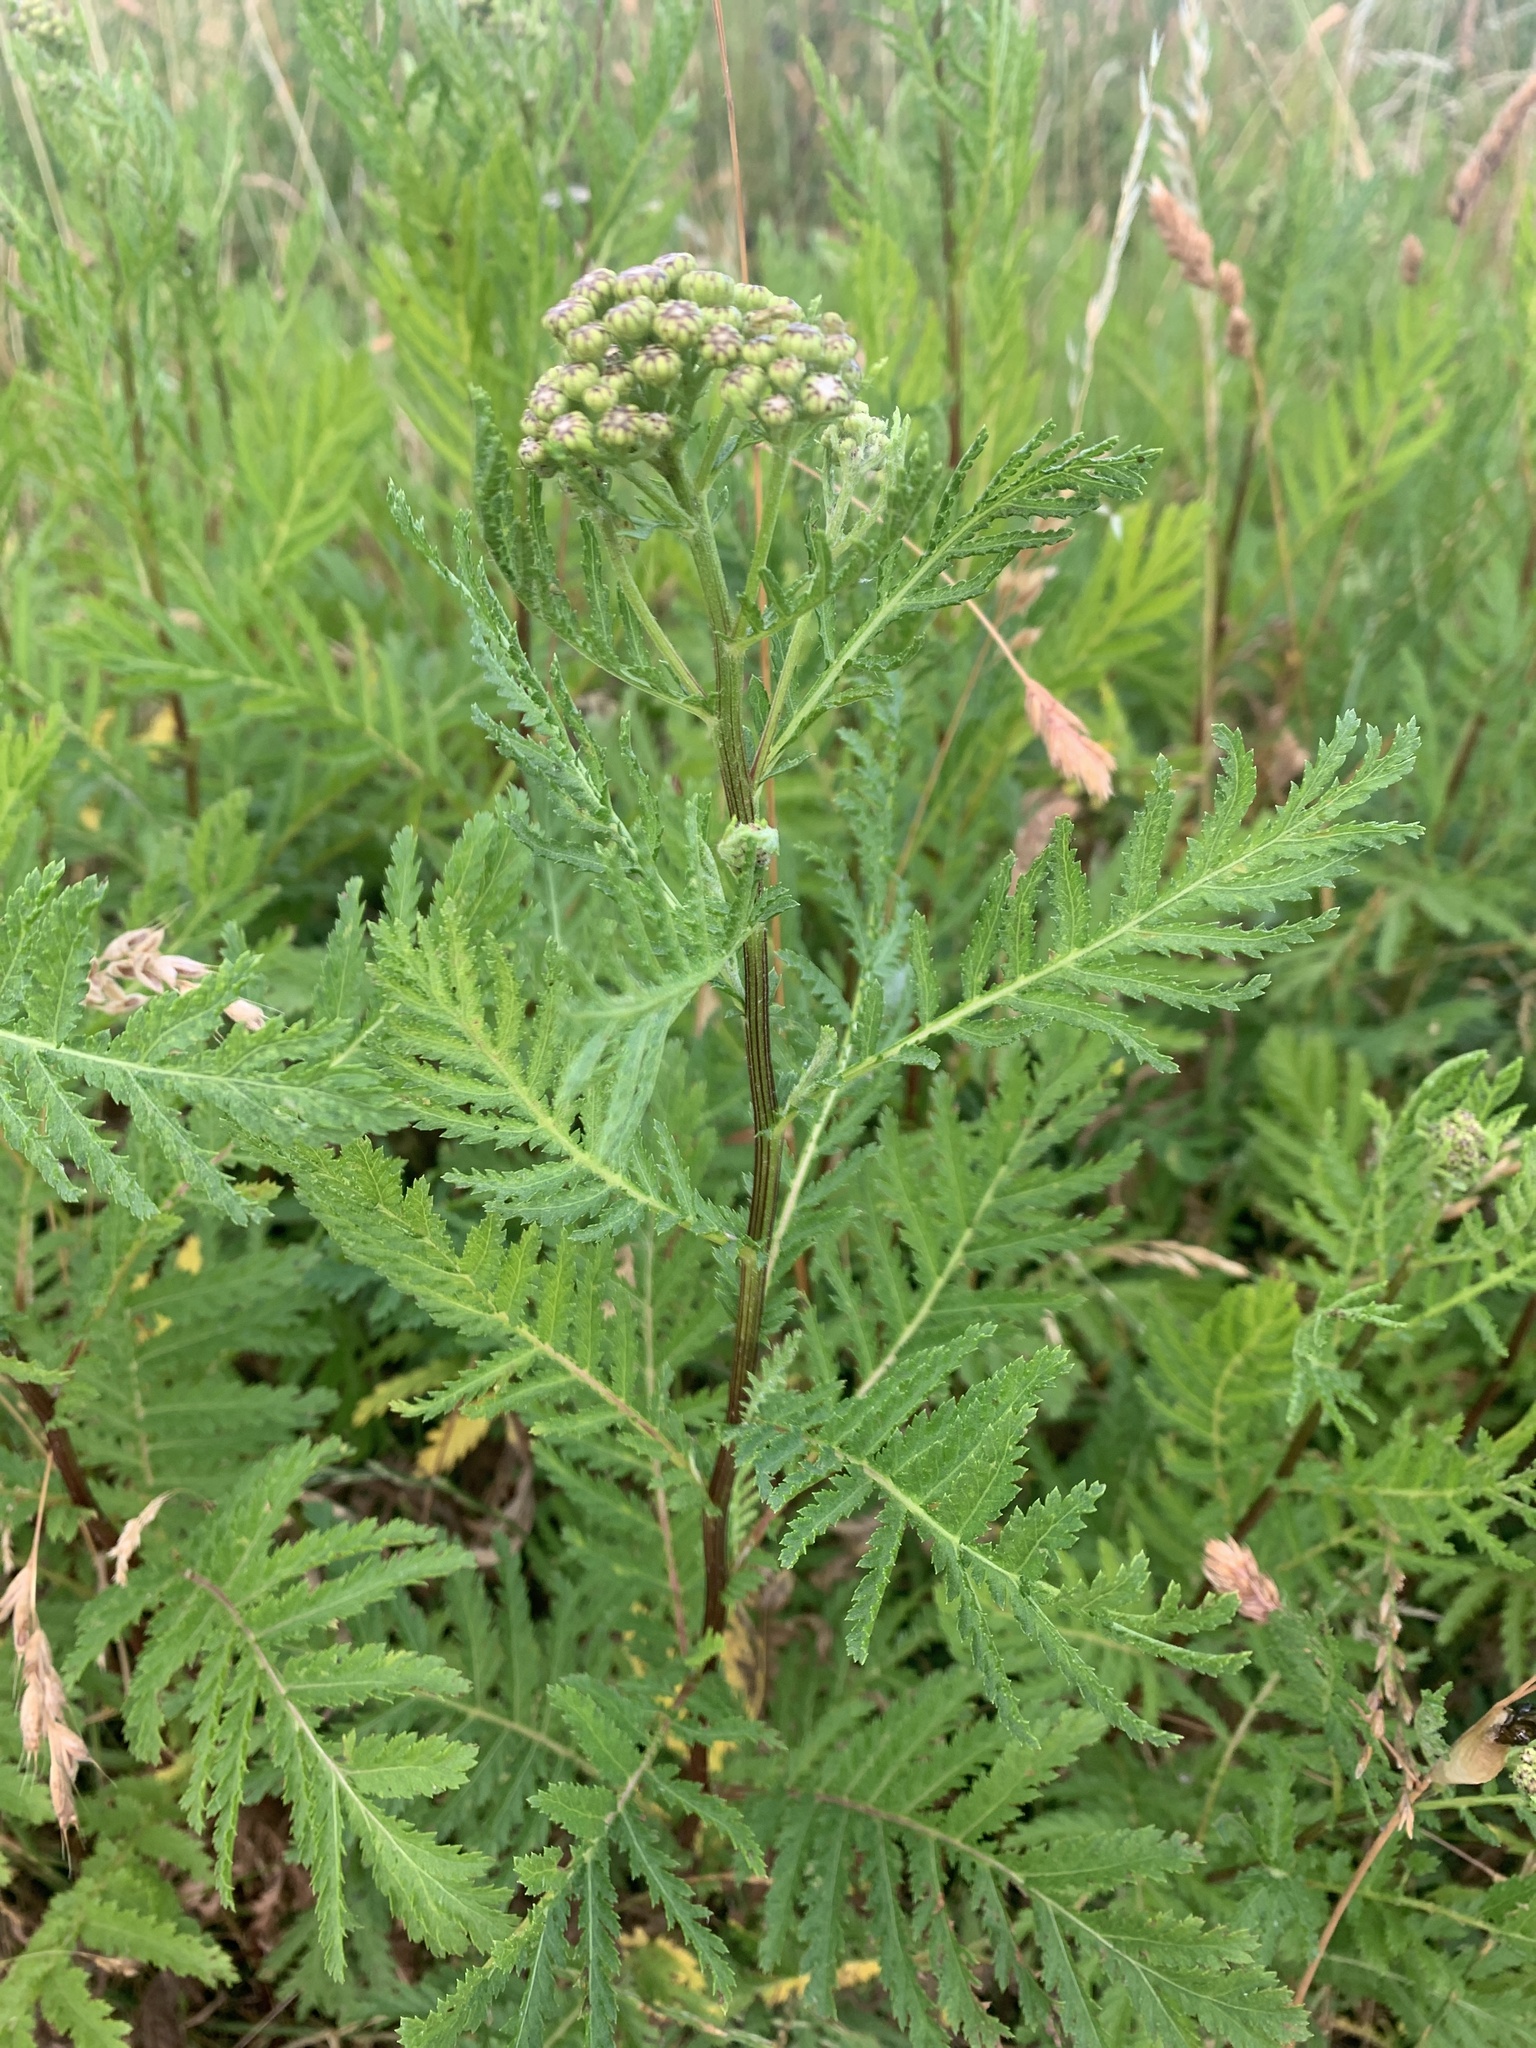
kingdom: Plantae
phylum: Tracheophyta
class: Magnoliopsida
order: Asterales
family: Asteraceae
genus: Tanacetum
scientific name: Tanacetum vulgare
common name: Common tansy
